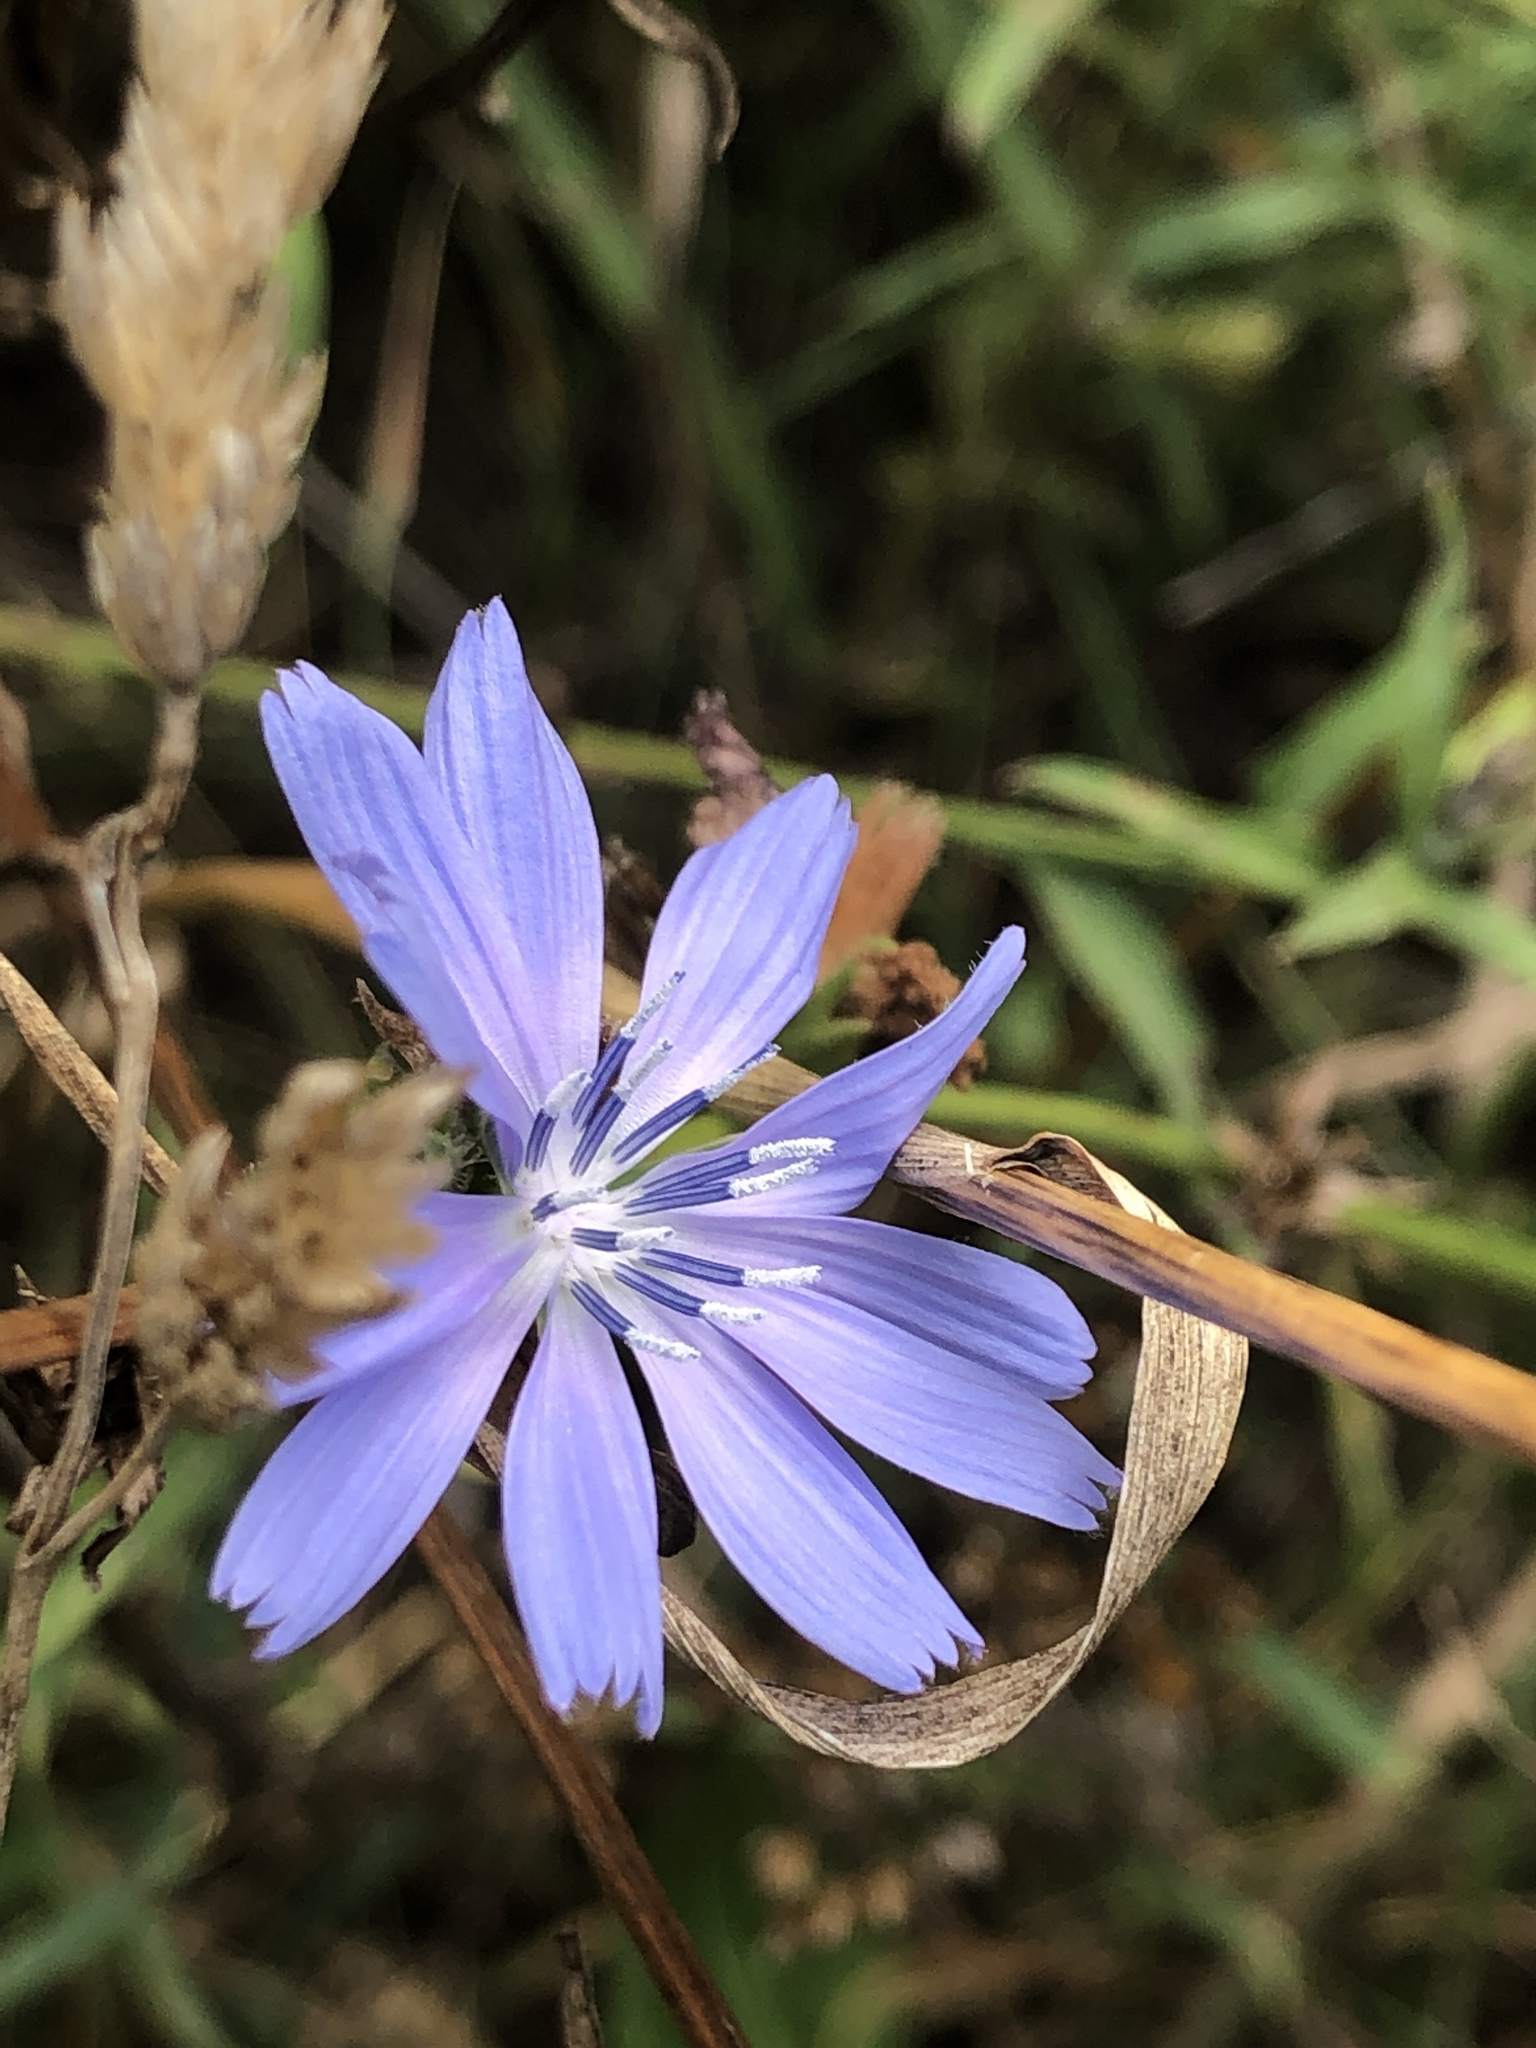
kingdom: Plantae
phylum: Tracheophyta
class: Magnoliopsida
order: Asterales
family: Asteraceae
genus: Cichorium
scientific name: Cichorium intybus
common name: Chicory
